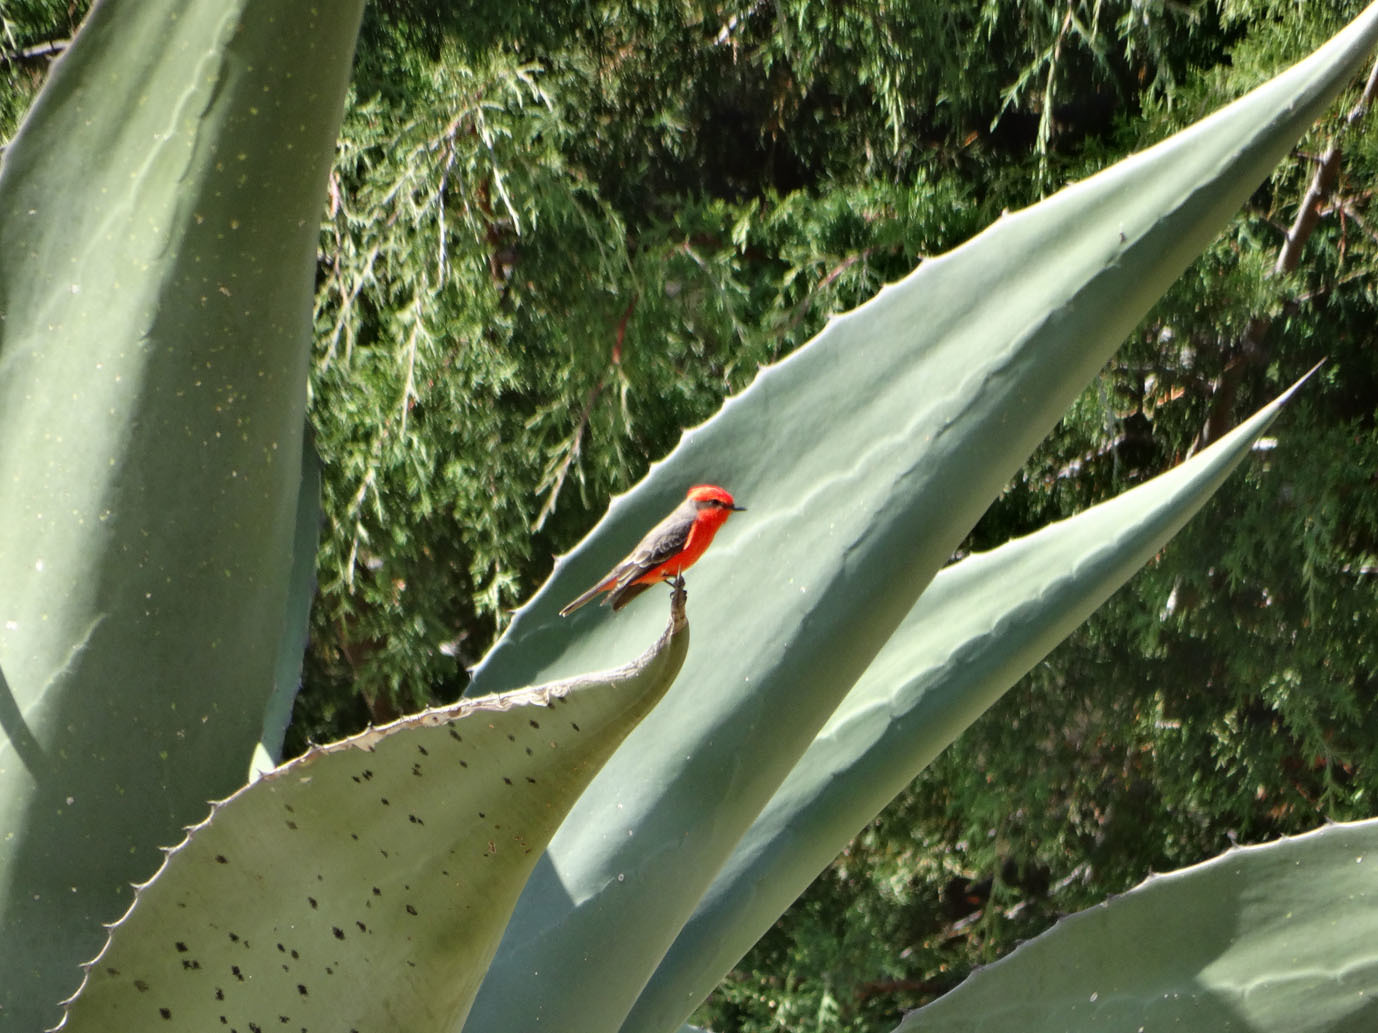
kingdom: Animalia
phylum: Chordata
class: Aves
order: Passeriformes
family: Tyrannidae
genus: Pyrocephalus
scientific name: Pyrocephalus rubinus
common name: Vermilion flycatcher
